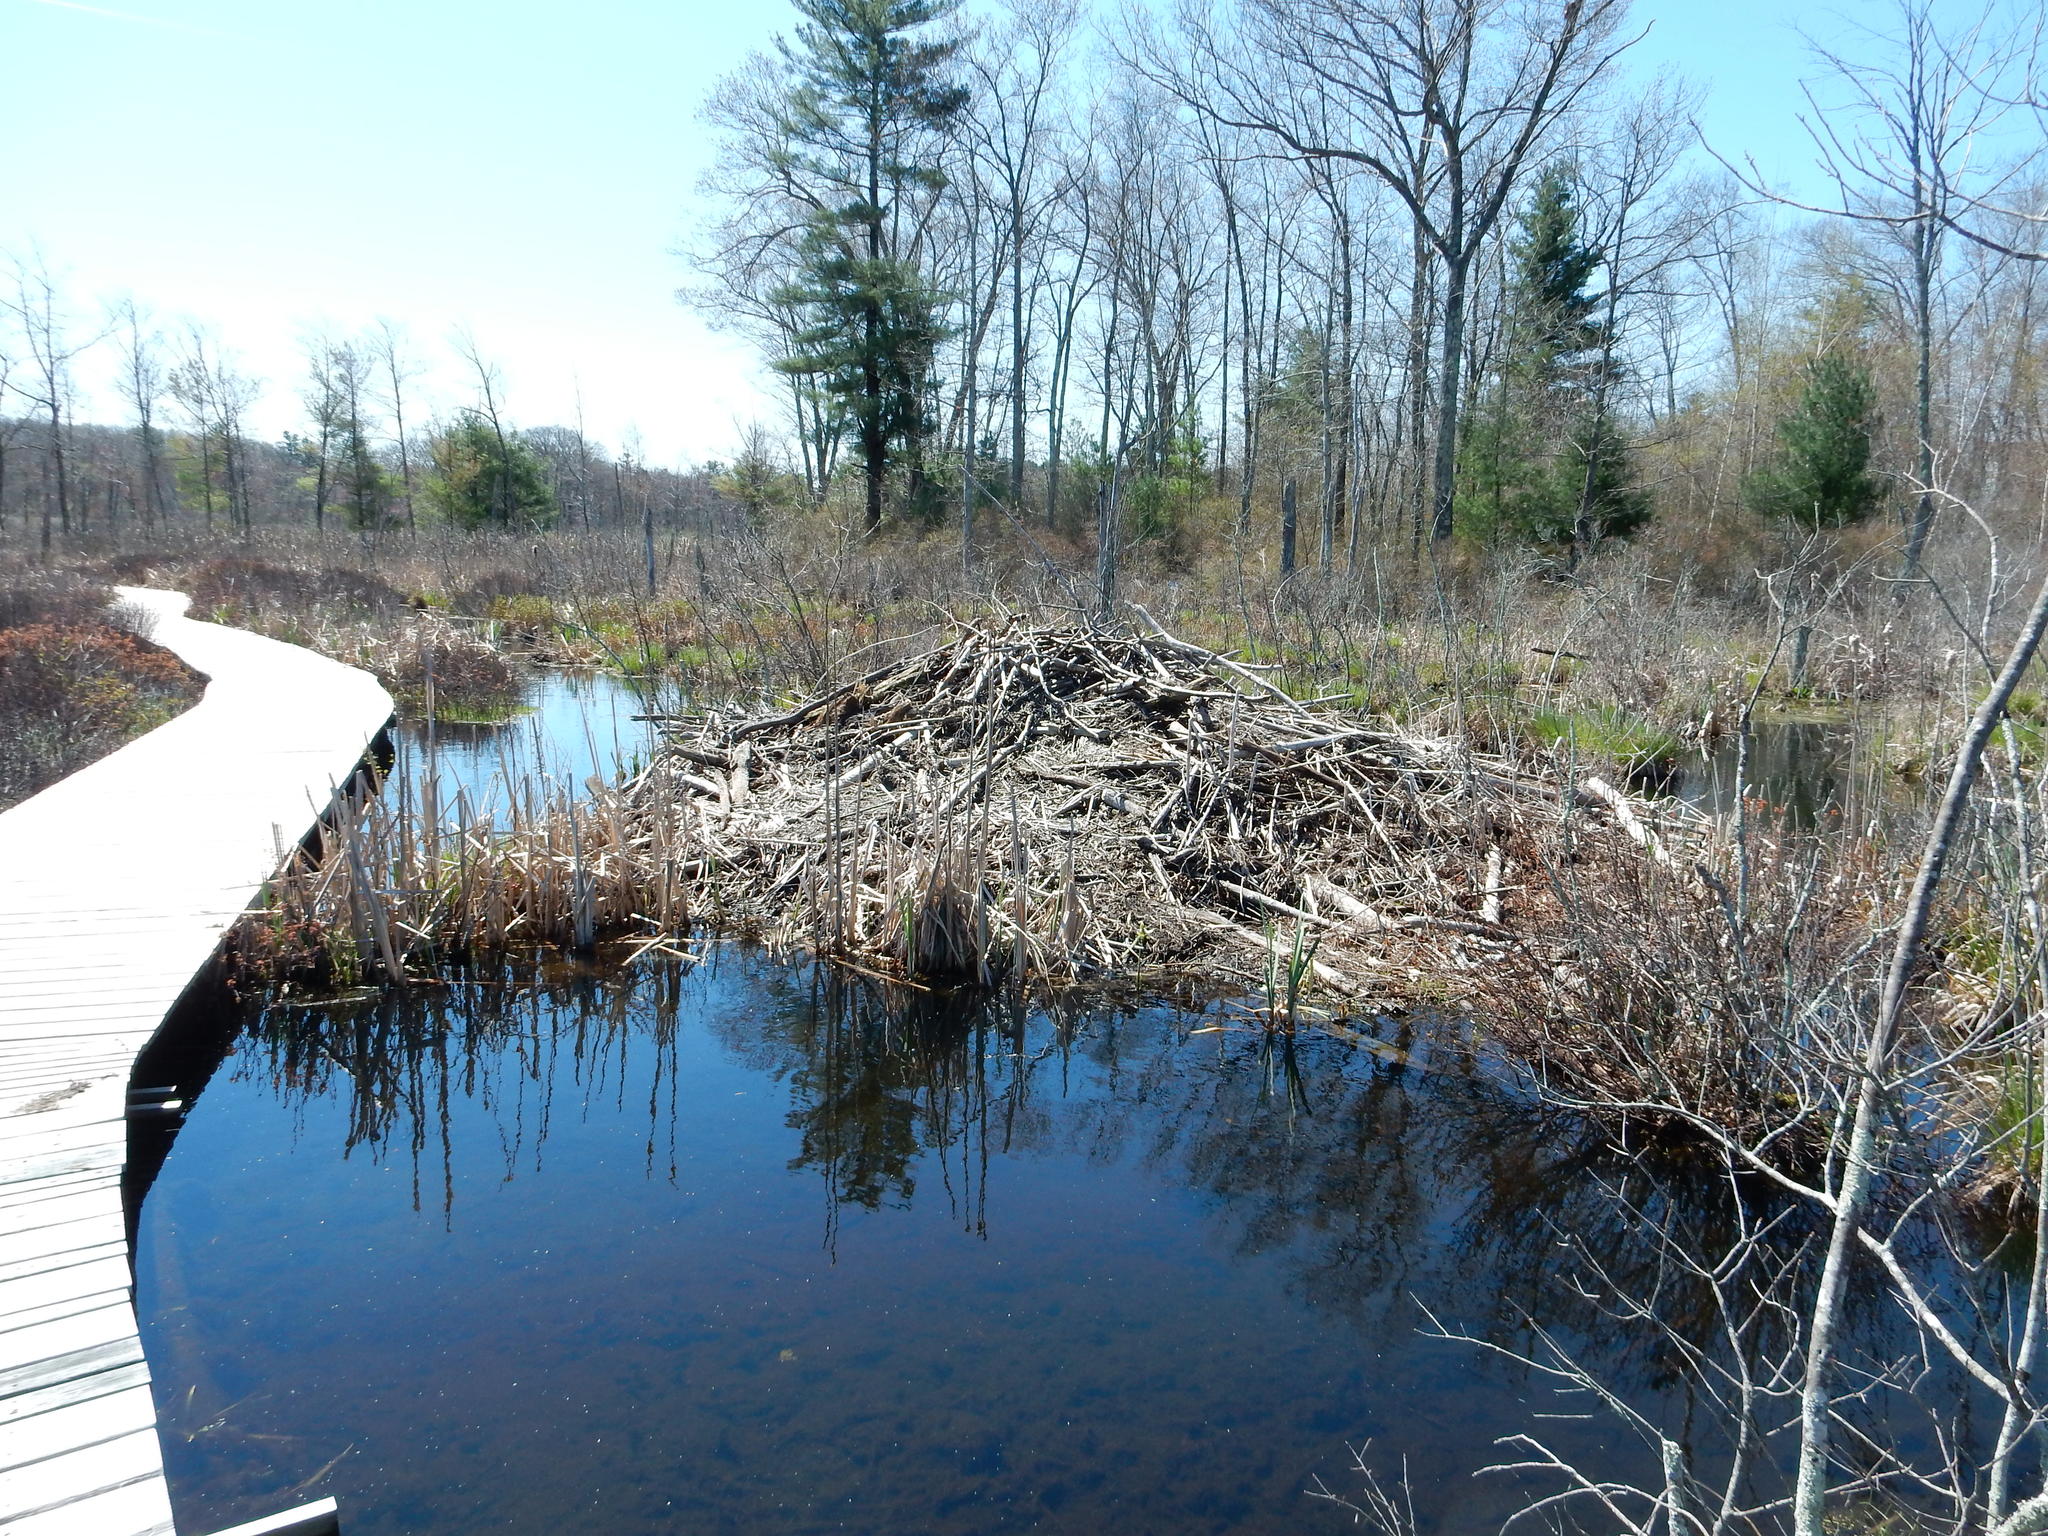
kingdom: Animalia
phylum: Chordata
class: Mammalia
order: Rodentia
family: Castoridae
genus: Castor
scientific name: Castor canadensis
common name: American beaver
